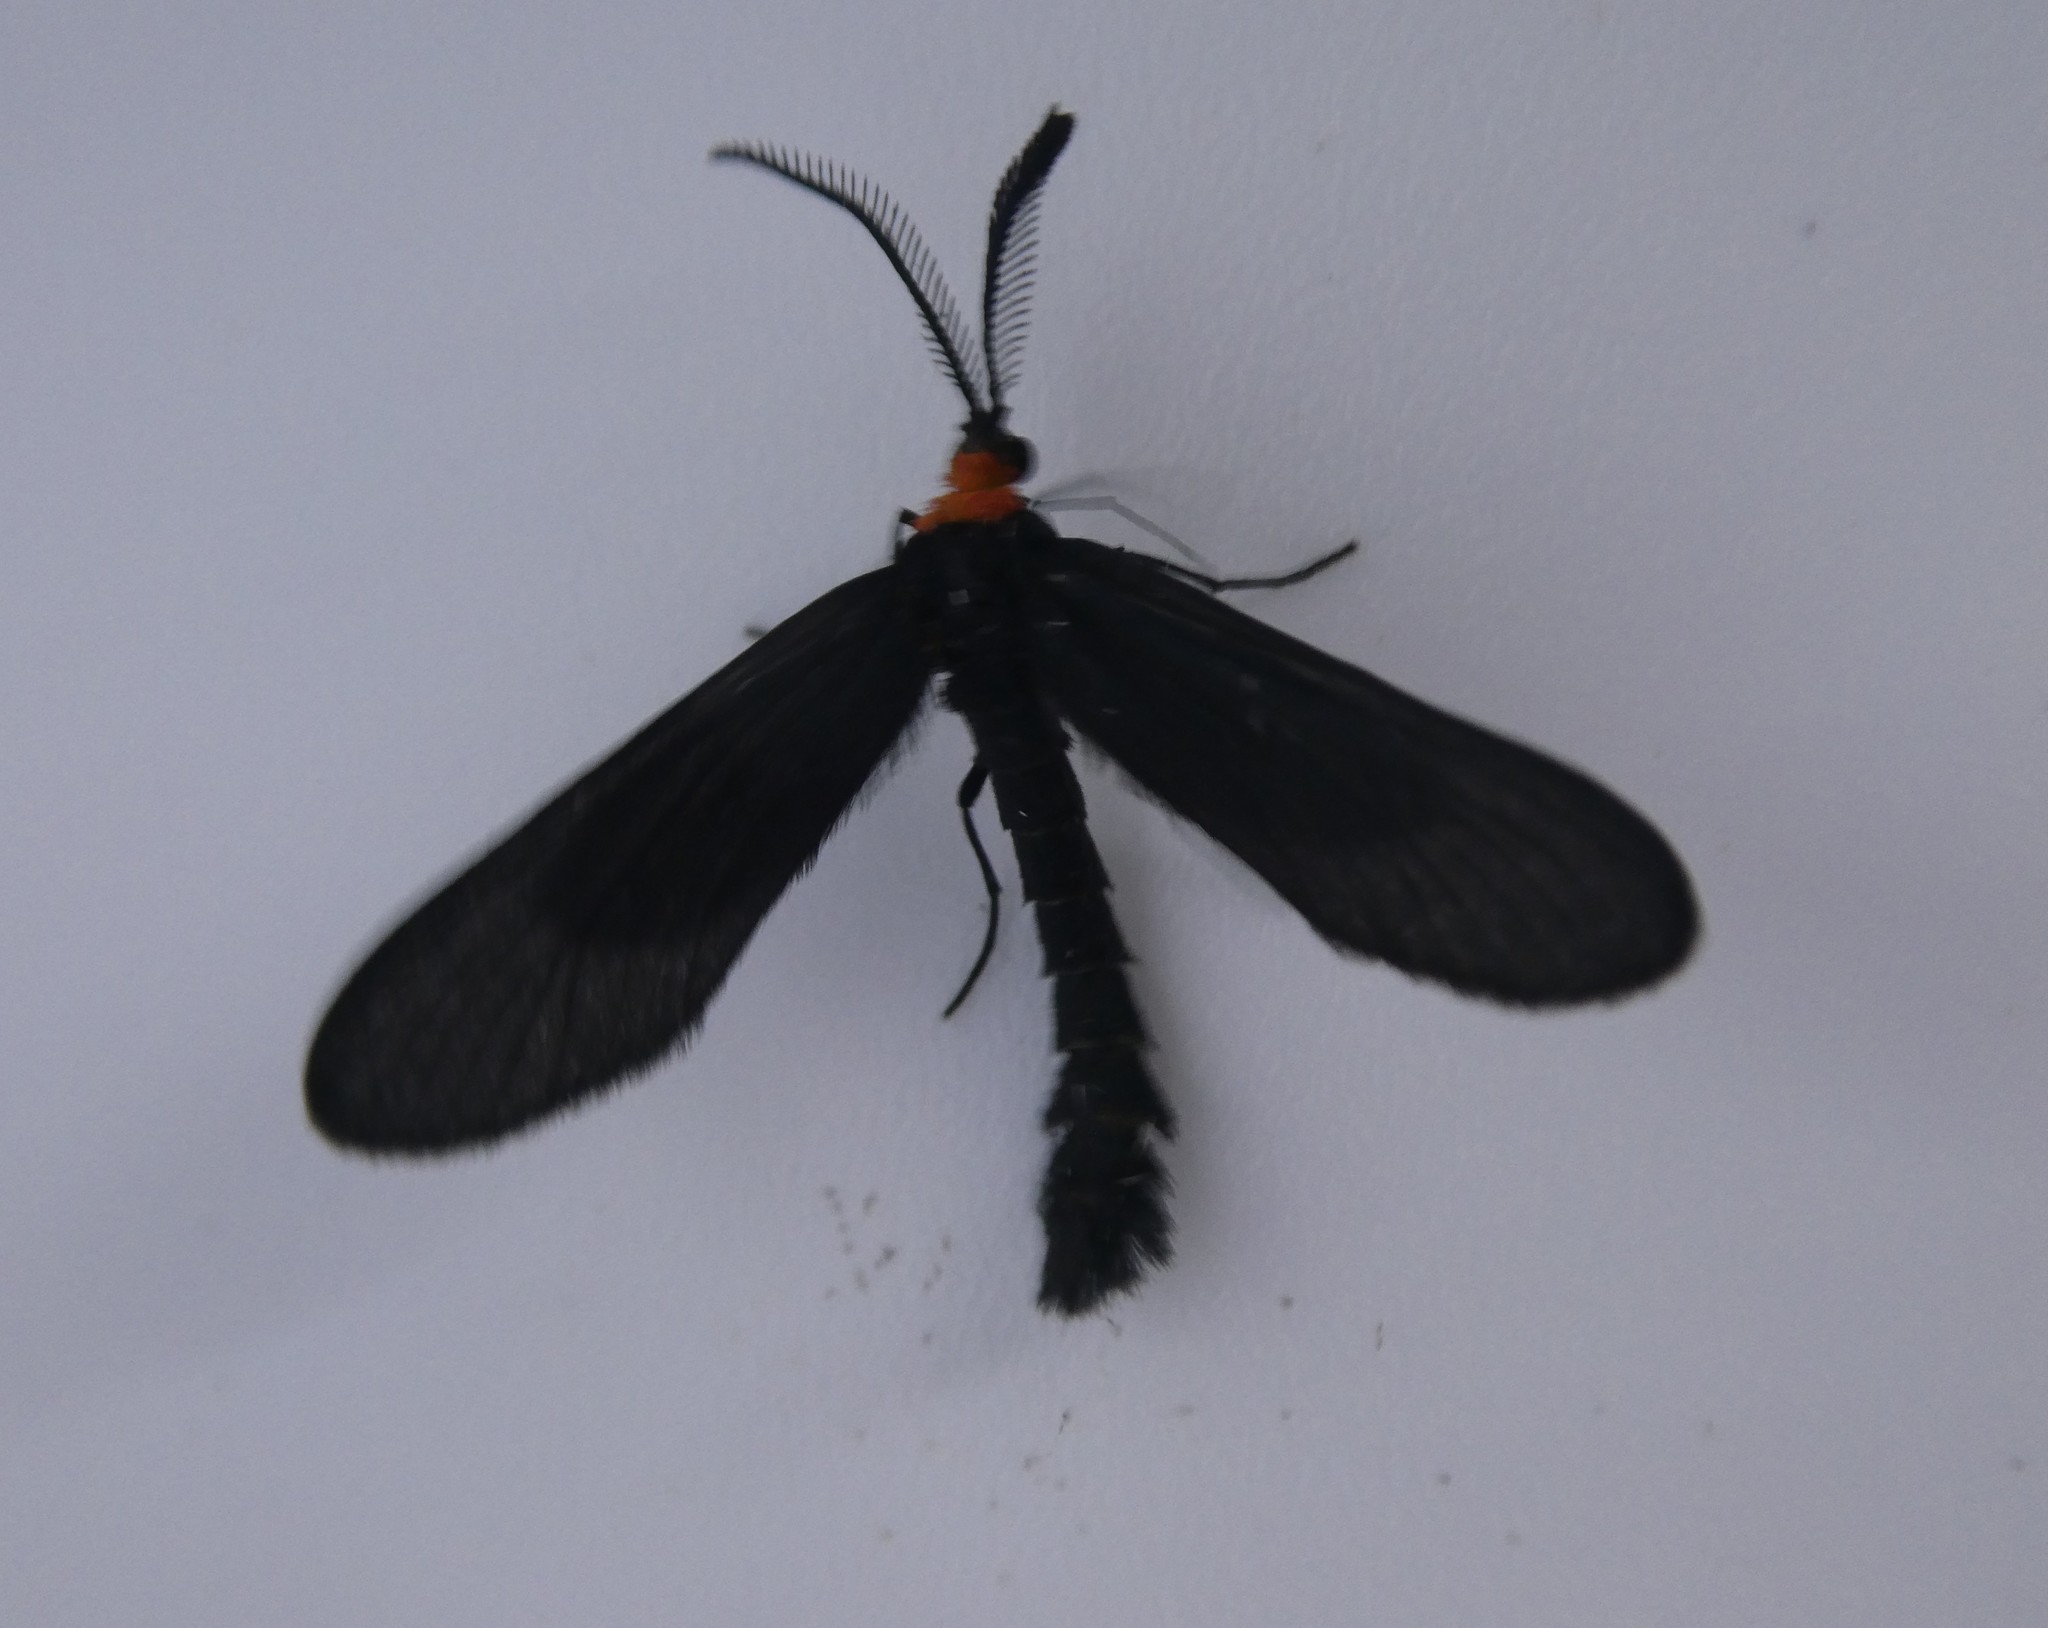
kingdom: Animalia
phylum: Arthropoda
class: Insecta
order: Lepidoptera
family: Zygaenidae
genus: Harrisina
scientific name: Harrisina americana
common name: Grapeleaf skeletonizer moth
